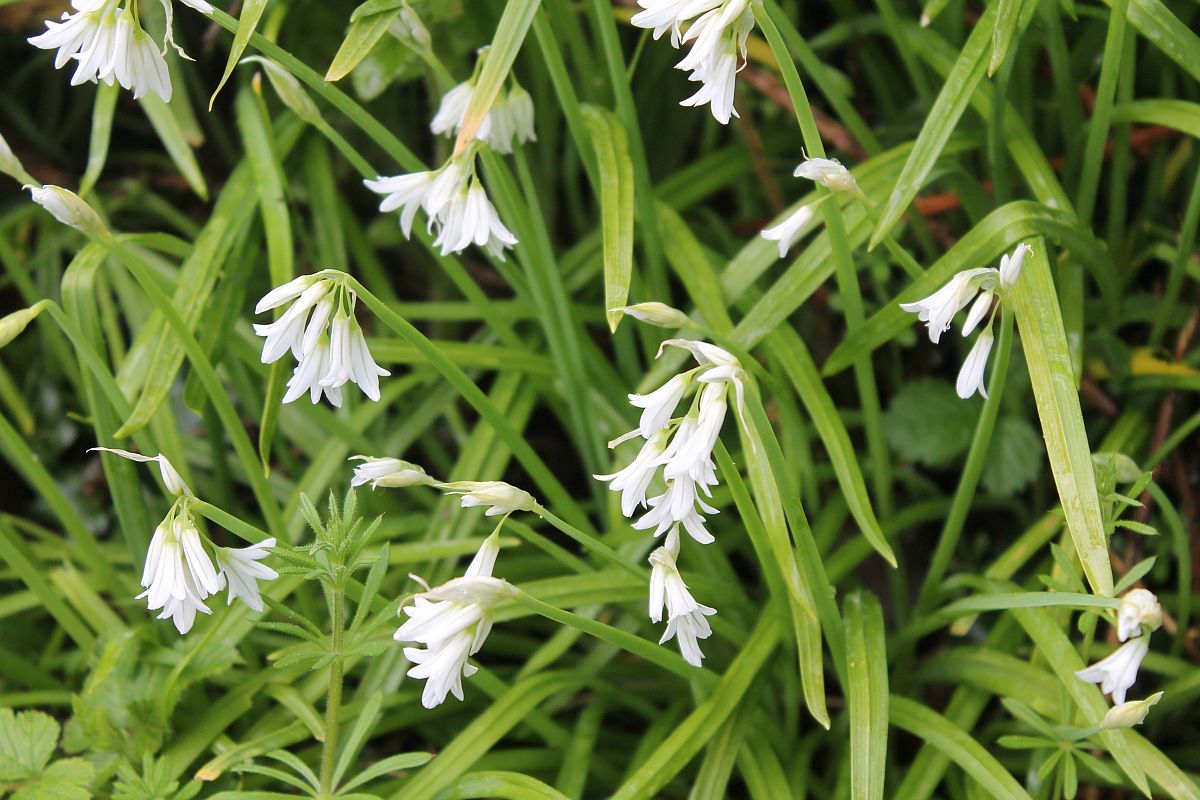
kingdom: Plantae
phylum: Tracheophyta
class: Liliopsida
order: Asparagales
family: Amaryllidaceae
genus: Allium
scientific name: Allium triquetrum
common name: Three-cornered garlic
